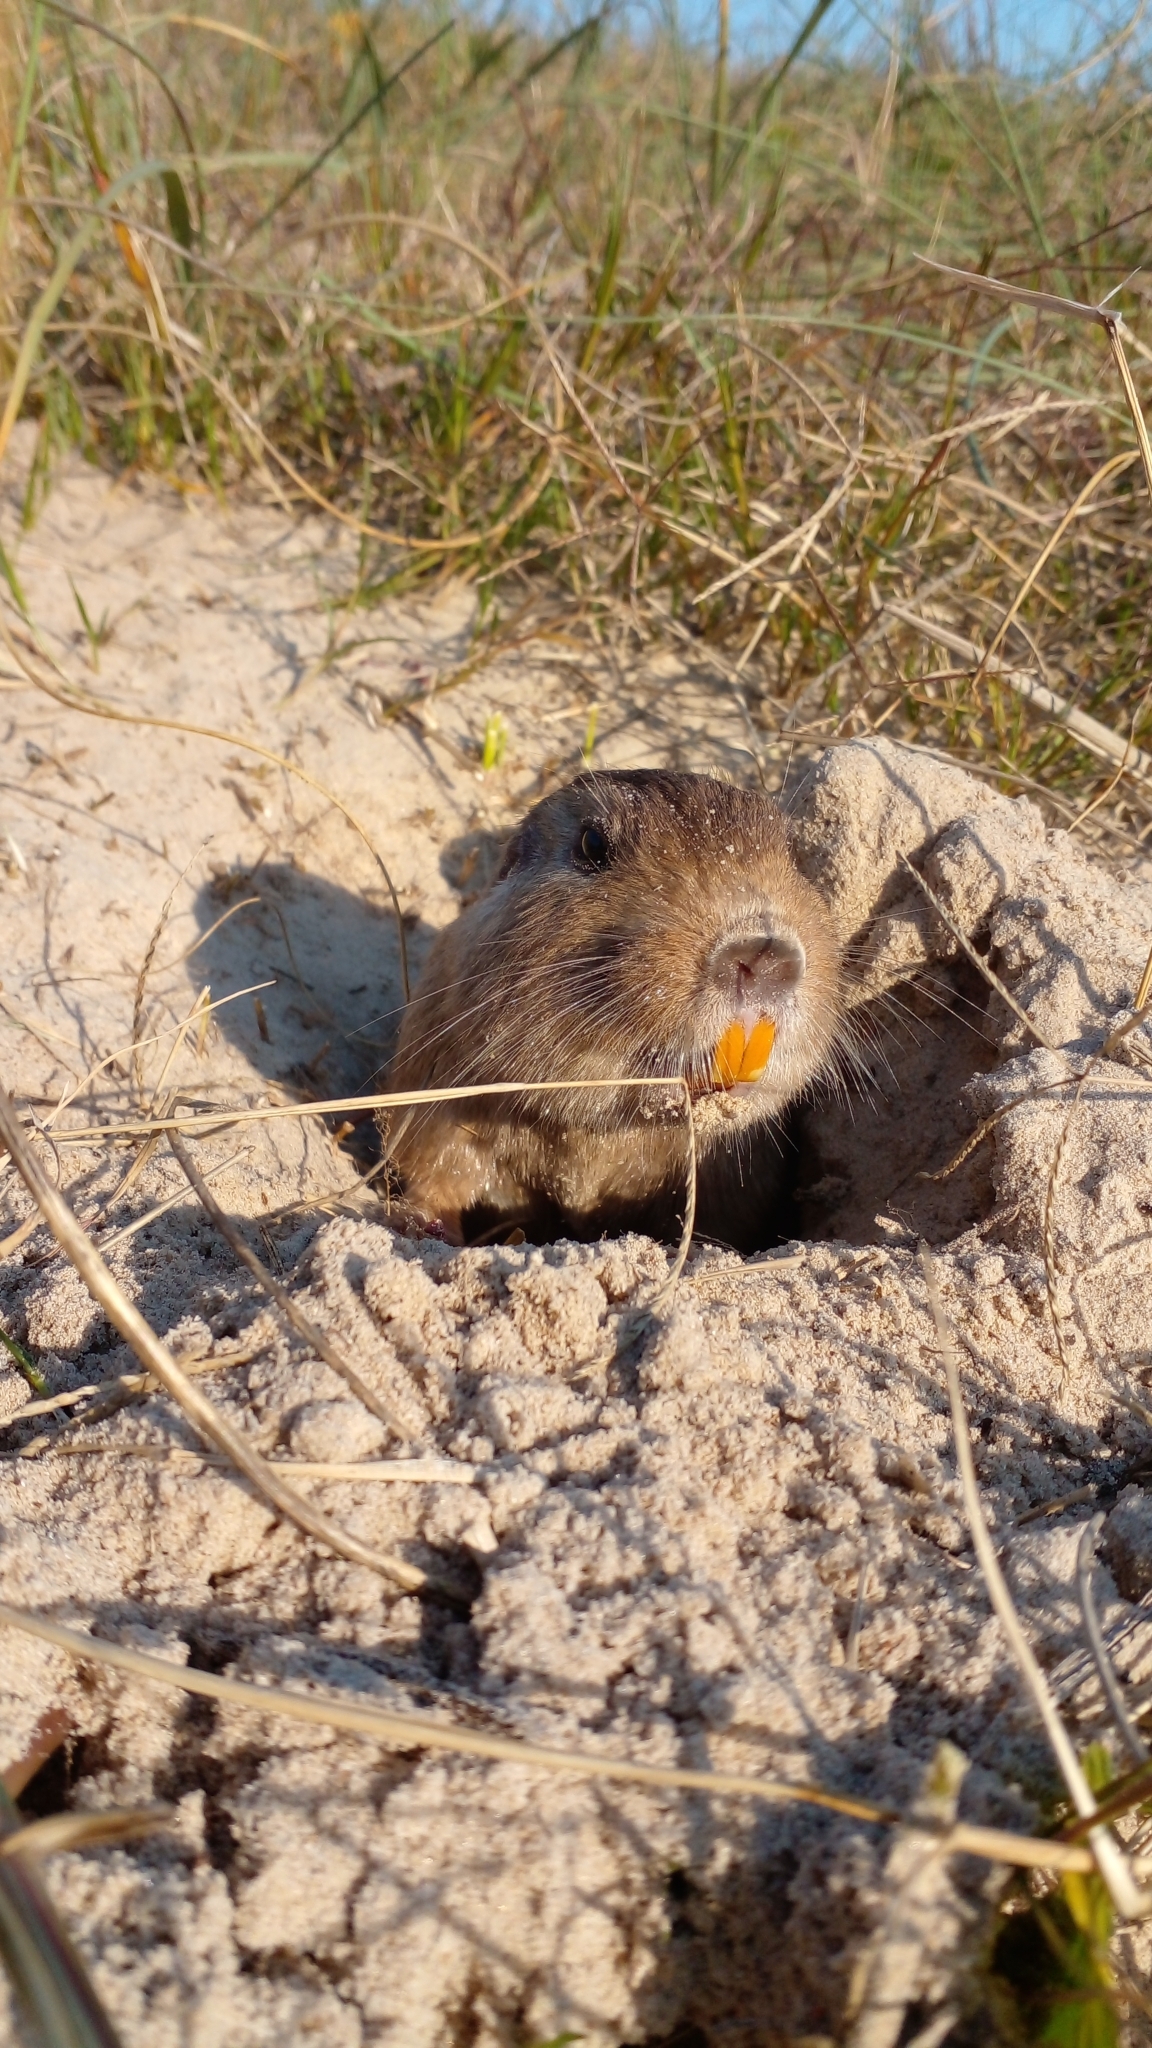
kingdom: Animalia
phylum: Chordata
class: Mammalia
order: Rodentia
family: Ctenomyidae
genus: Ctenomys
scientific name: Ctenomys pearsoni
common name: Pearson's tuco-tuco
